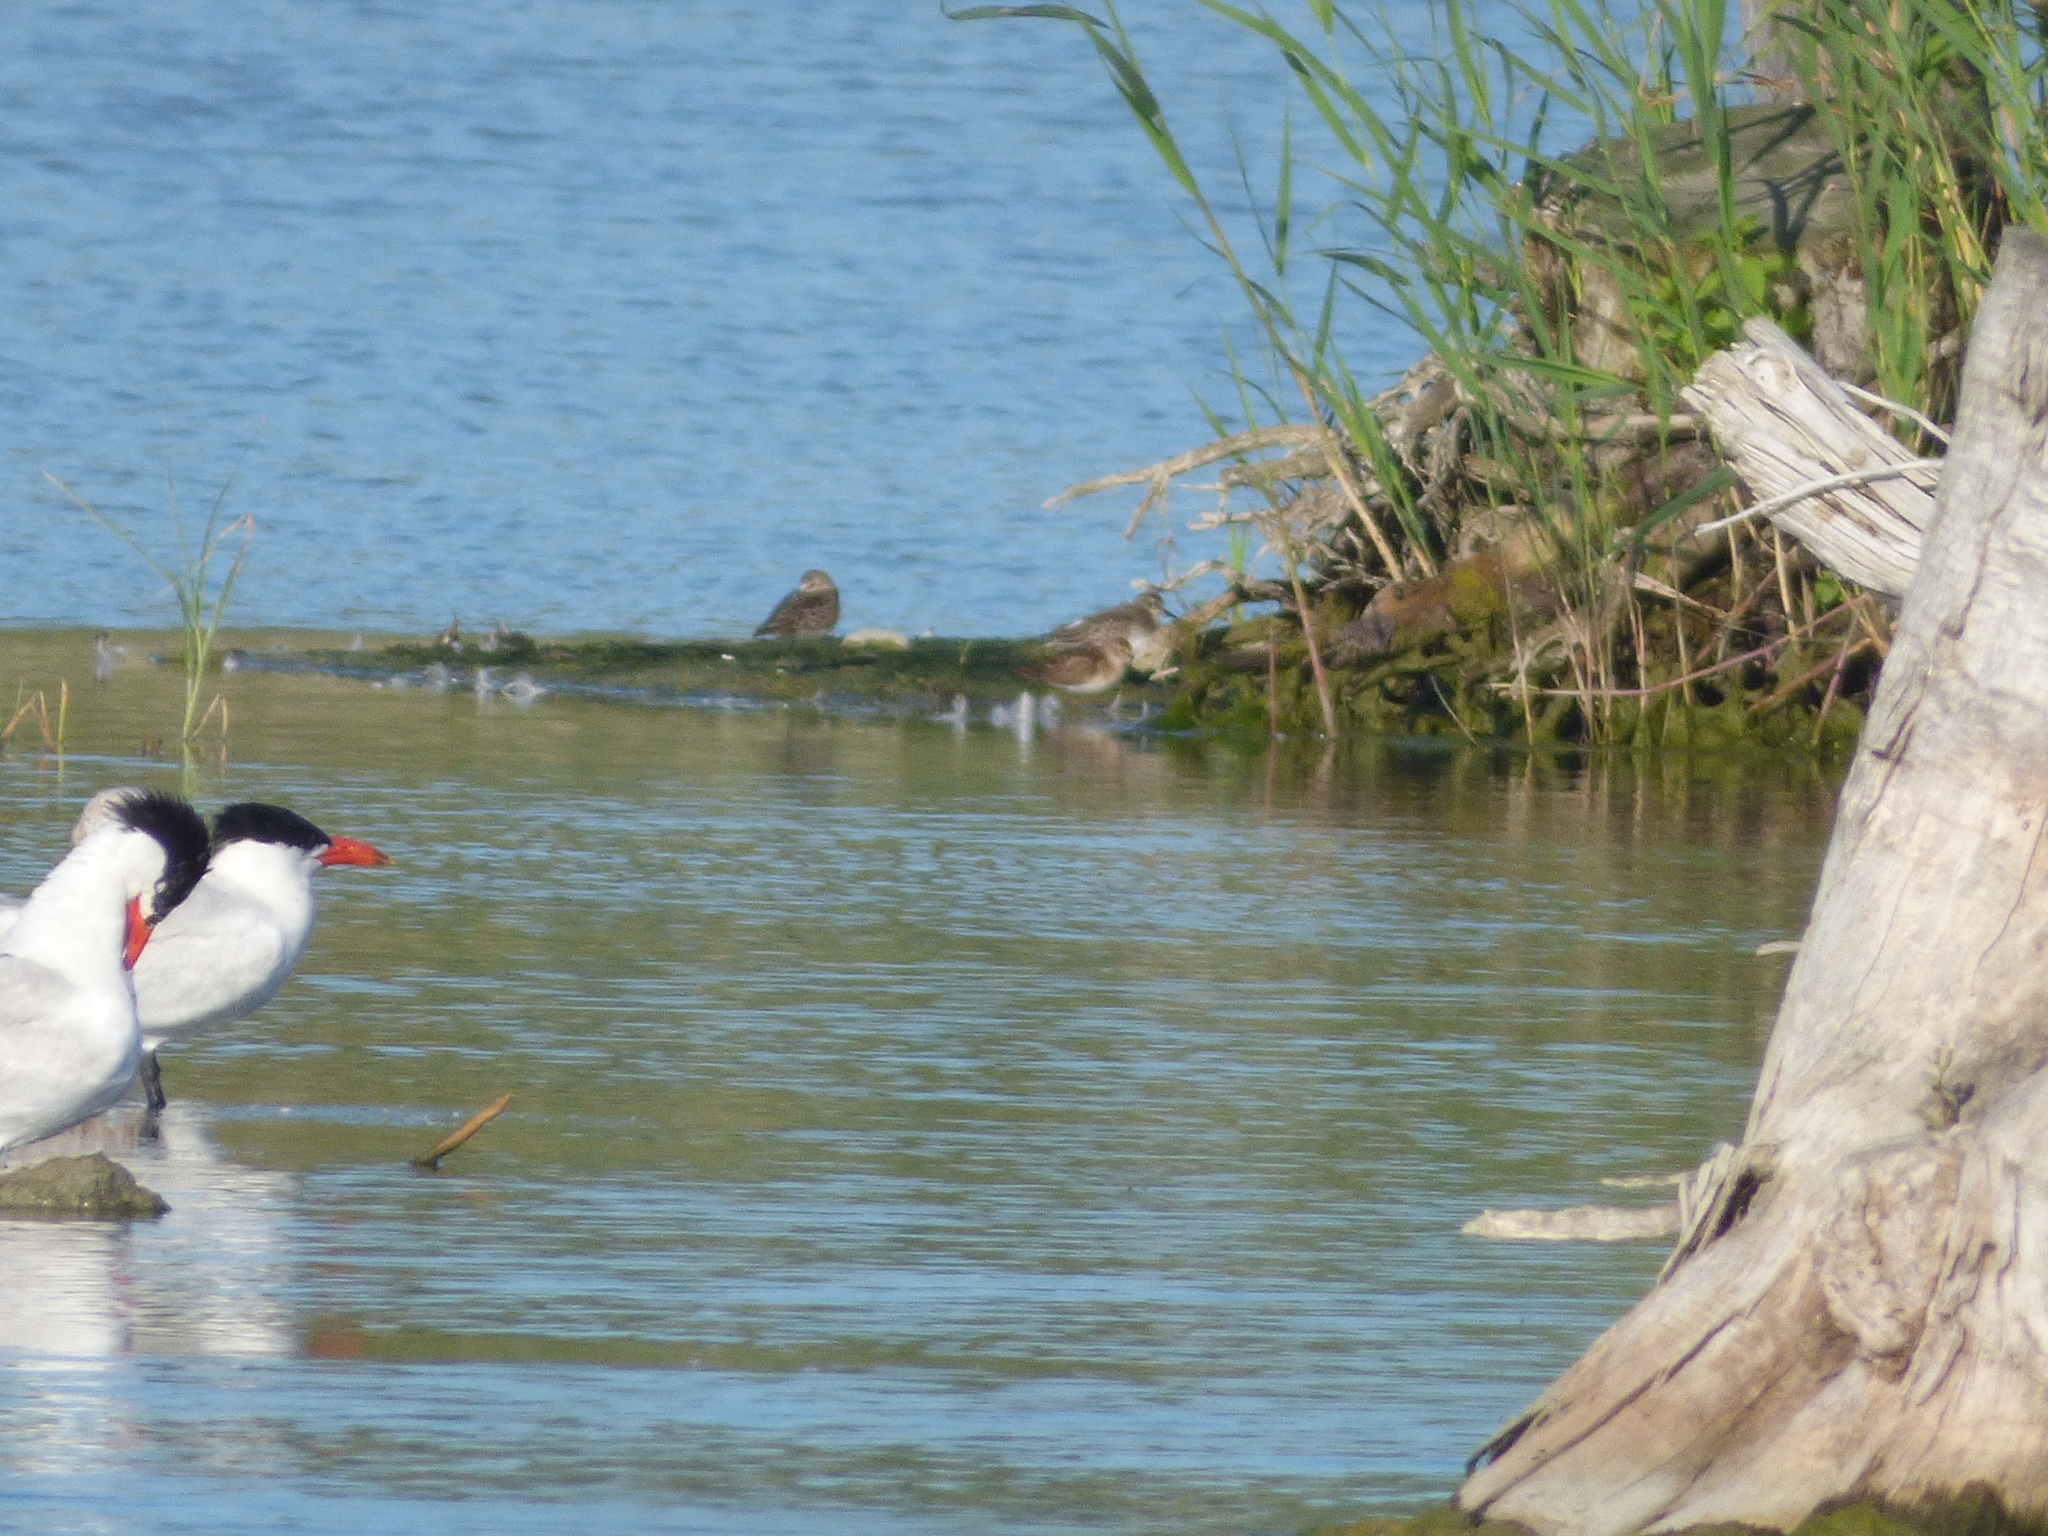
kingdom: Animalia
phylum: Chordata
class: Aves
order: Charadriiformes
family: Scolopacidae
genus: Calidris
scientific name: Calidris pusilla
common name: Semipalmated sandpiper
